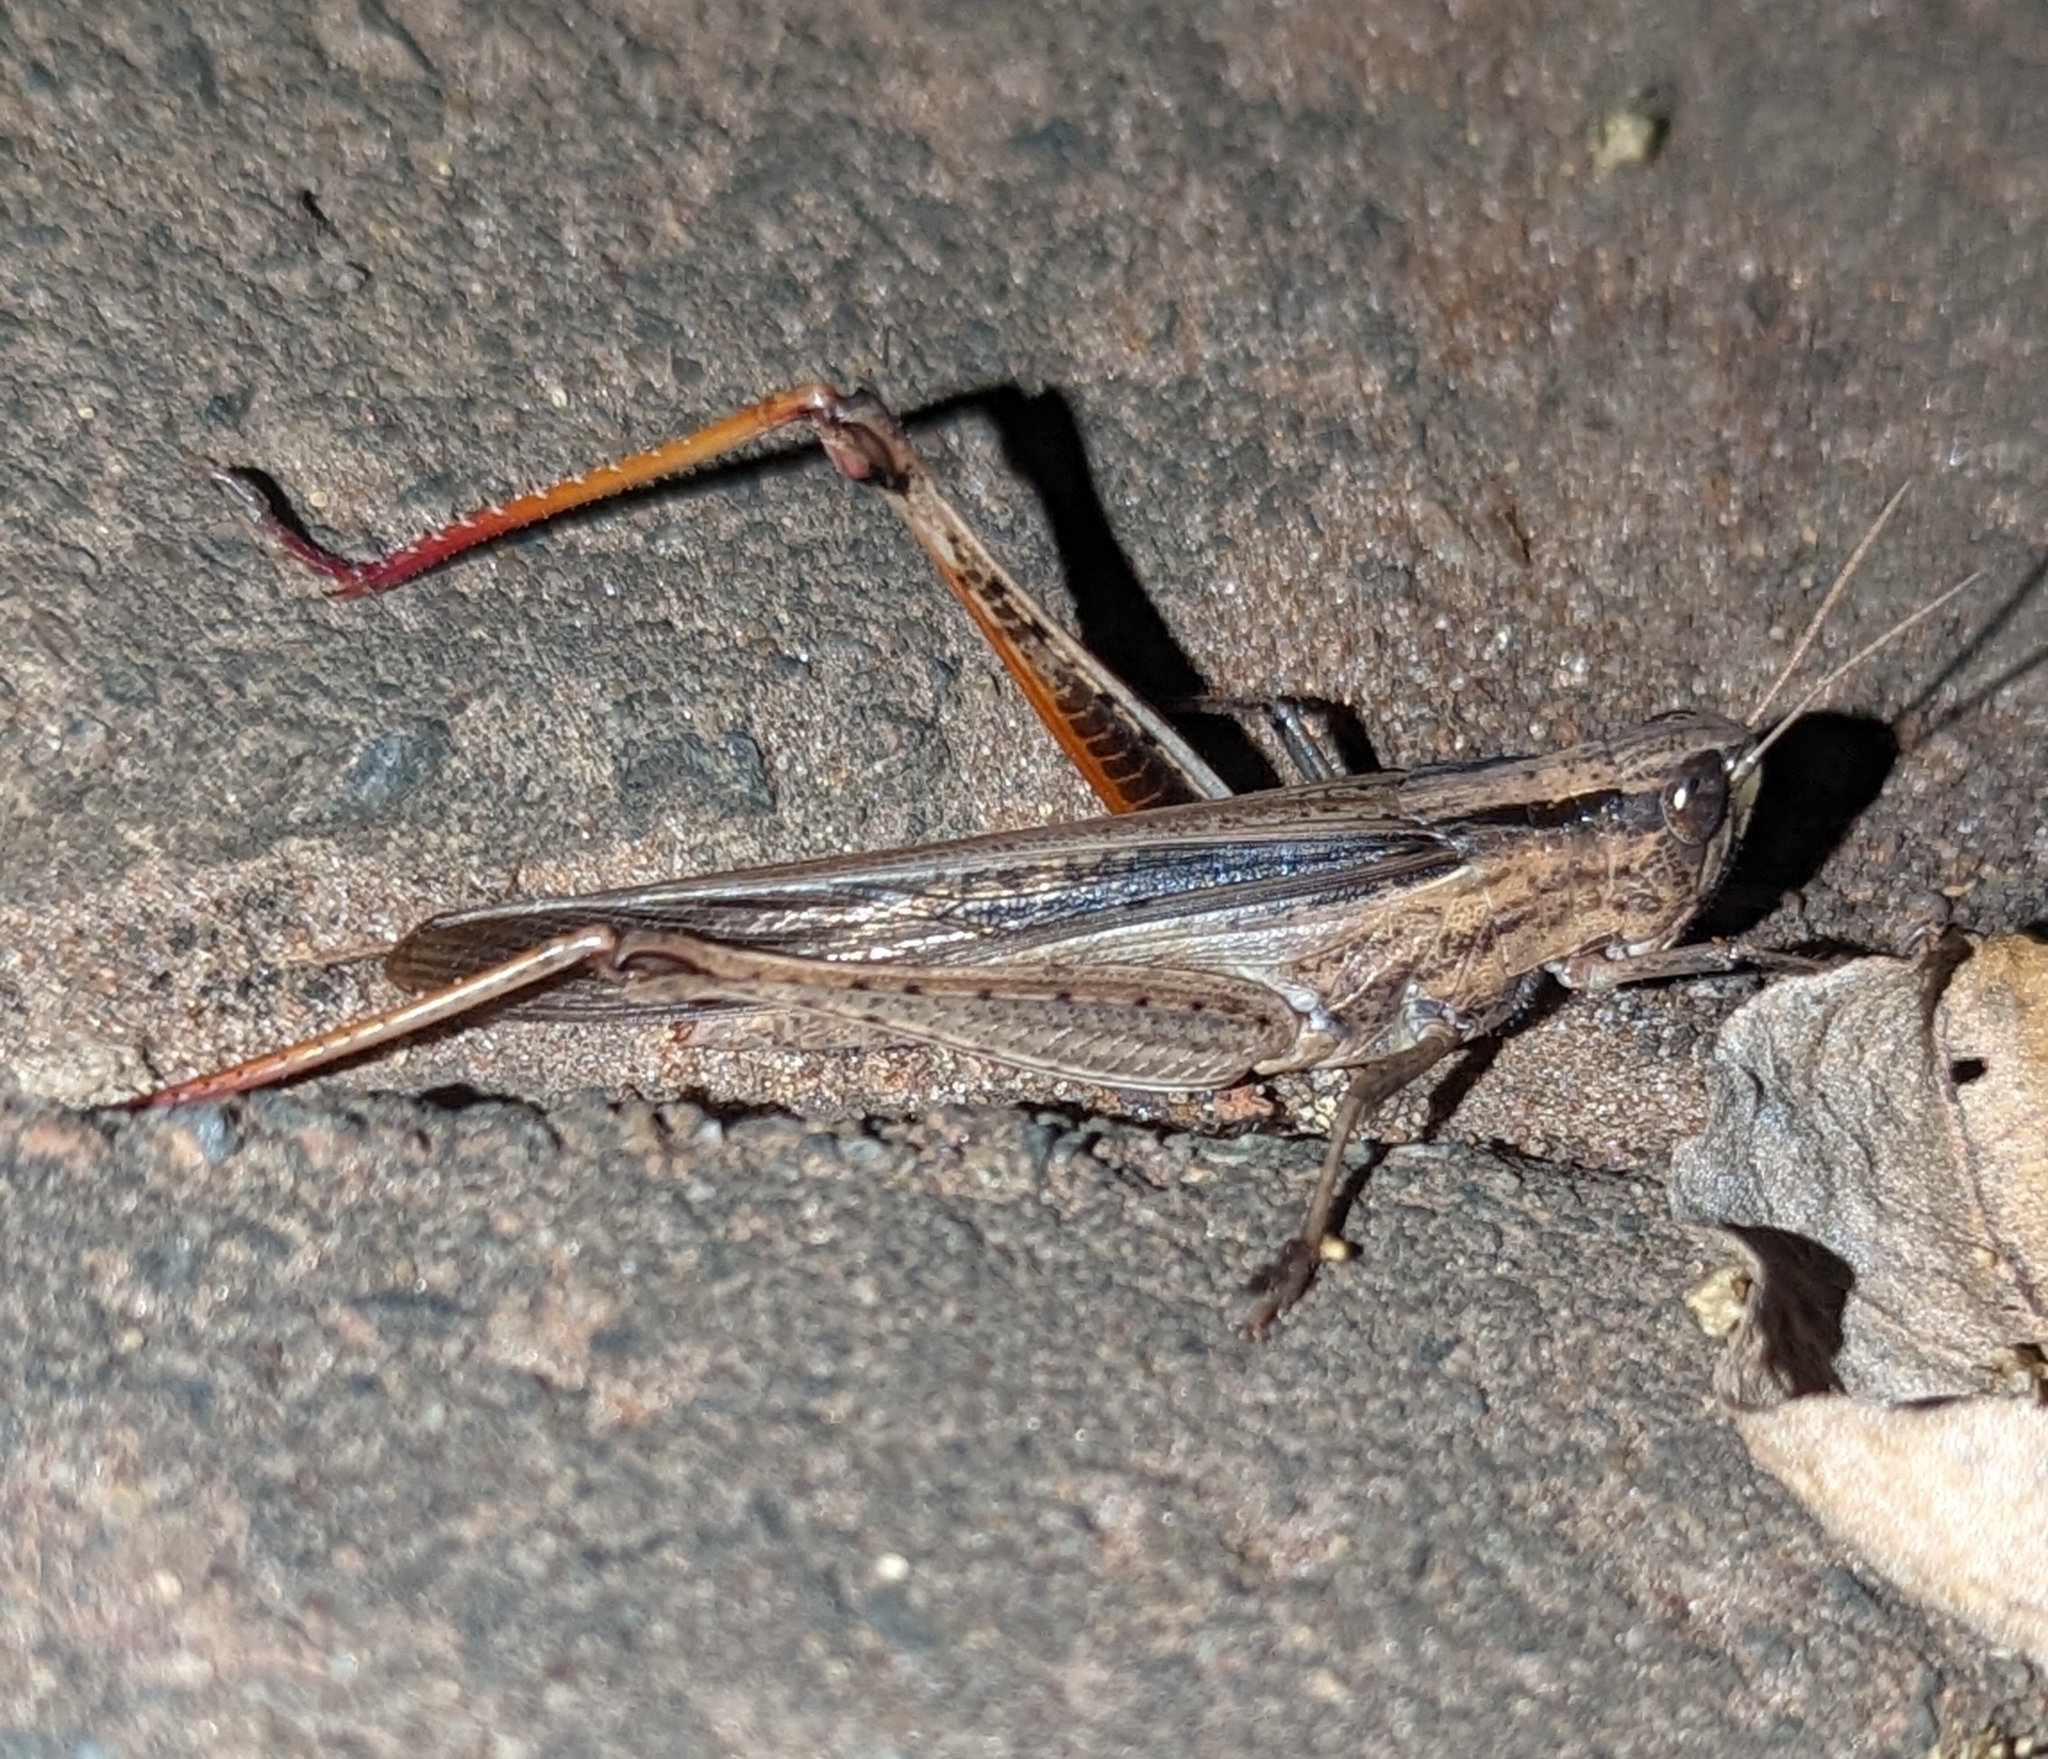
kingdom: Animalia
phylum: Arthropoda
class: Insecta
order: Orthoptera
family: Acrididae
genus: Paracinema
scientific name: Paracinema tricolor
